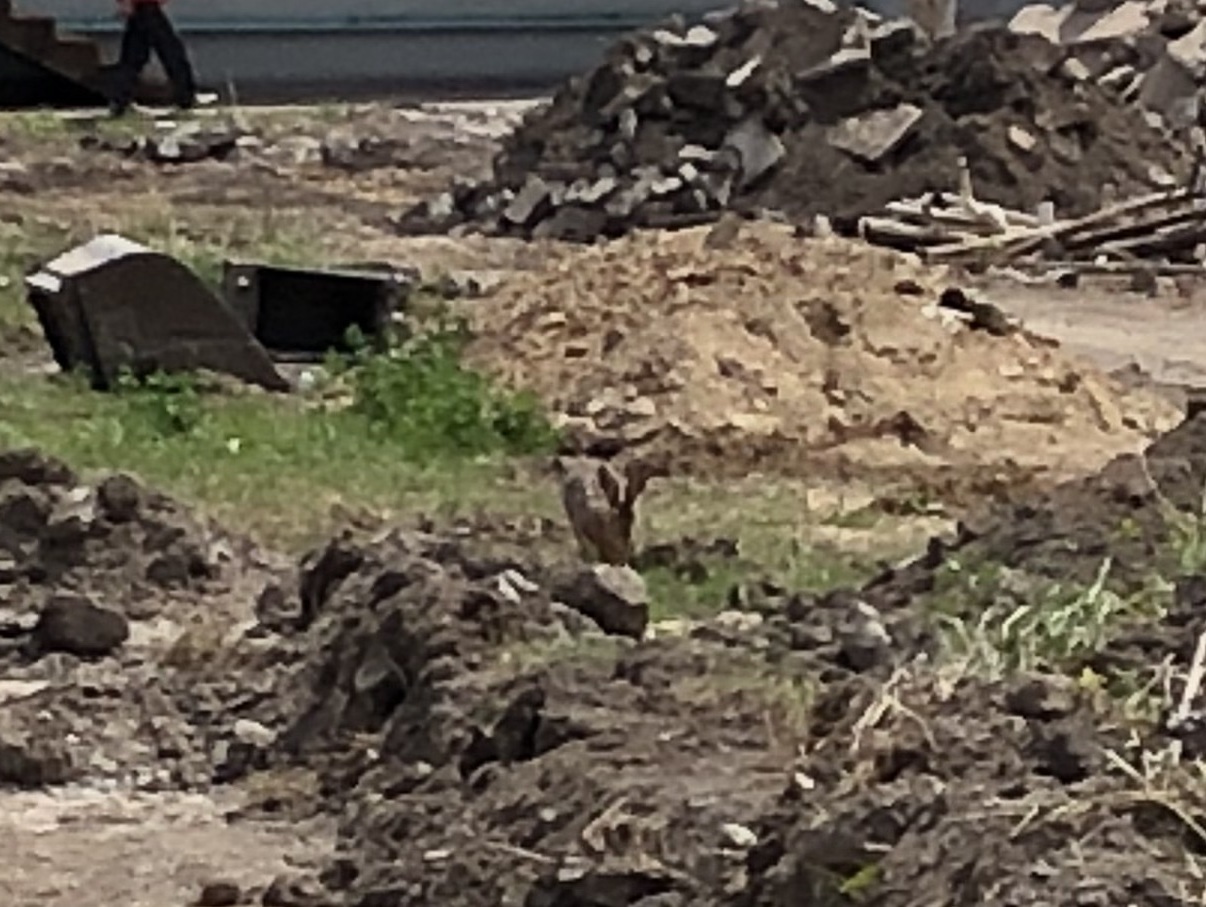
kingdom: Animalia
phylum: Chordata
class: Mammalia
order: Lagomorpha
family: Leporidae
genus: Lepus
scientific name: Lepus europaeus
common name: European hare
